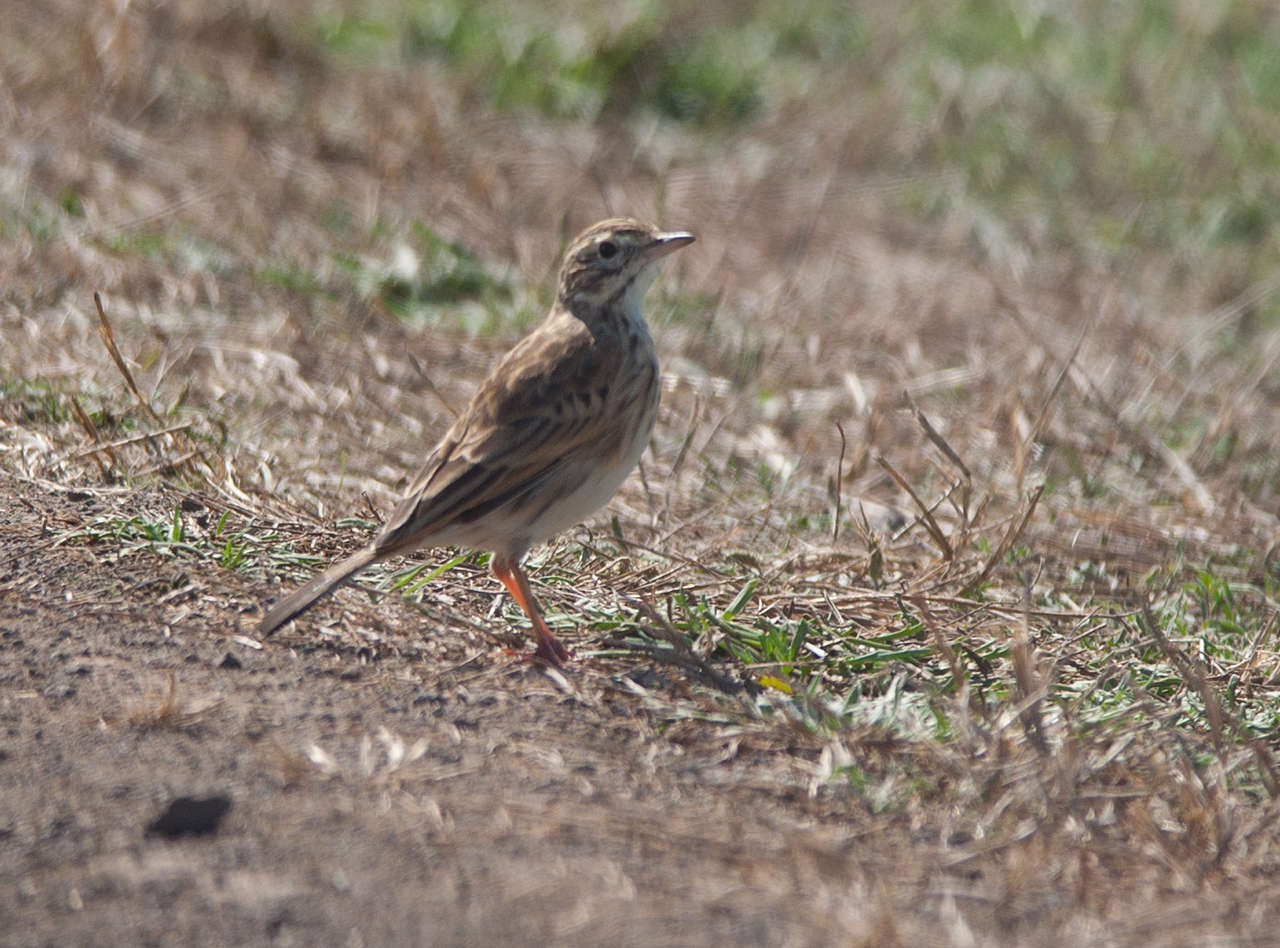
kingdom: Animalia
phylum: Chordata
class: Aves
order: Passeriformes
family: Motacillidae
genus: Anthus
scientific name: Anthus australis
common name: Australian pipit
